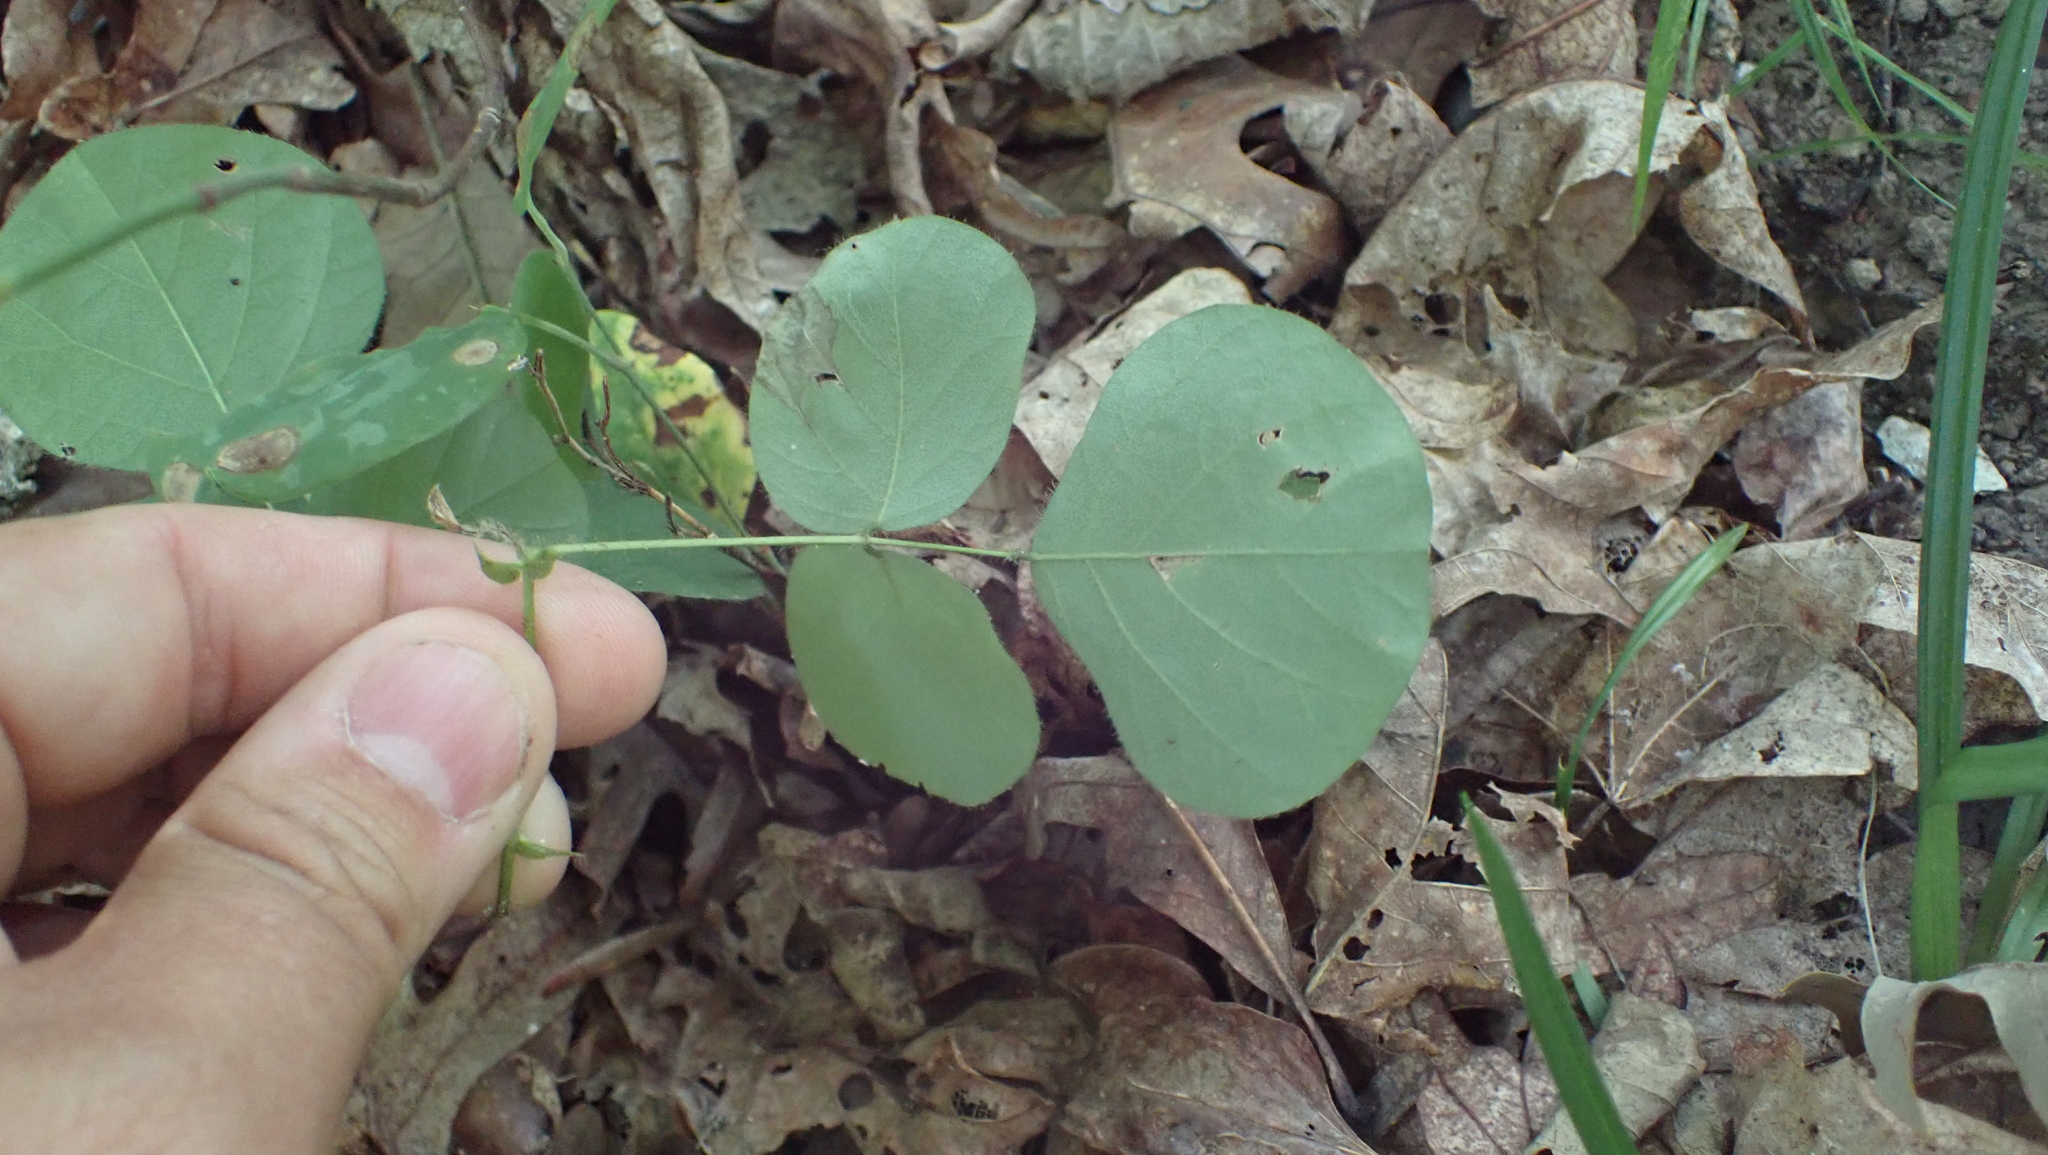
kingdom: Plantae
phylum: Tracheophyta
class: Magnoliopsida
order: Fabales
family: Fabaceae
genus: Desmodium
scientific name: Desmodium rotundifolium
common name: Dollarleaf
